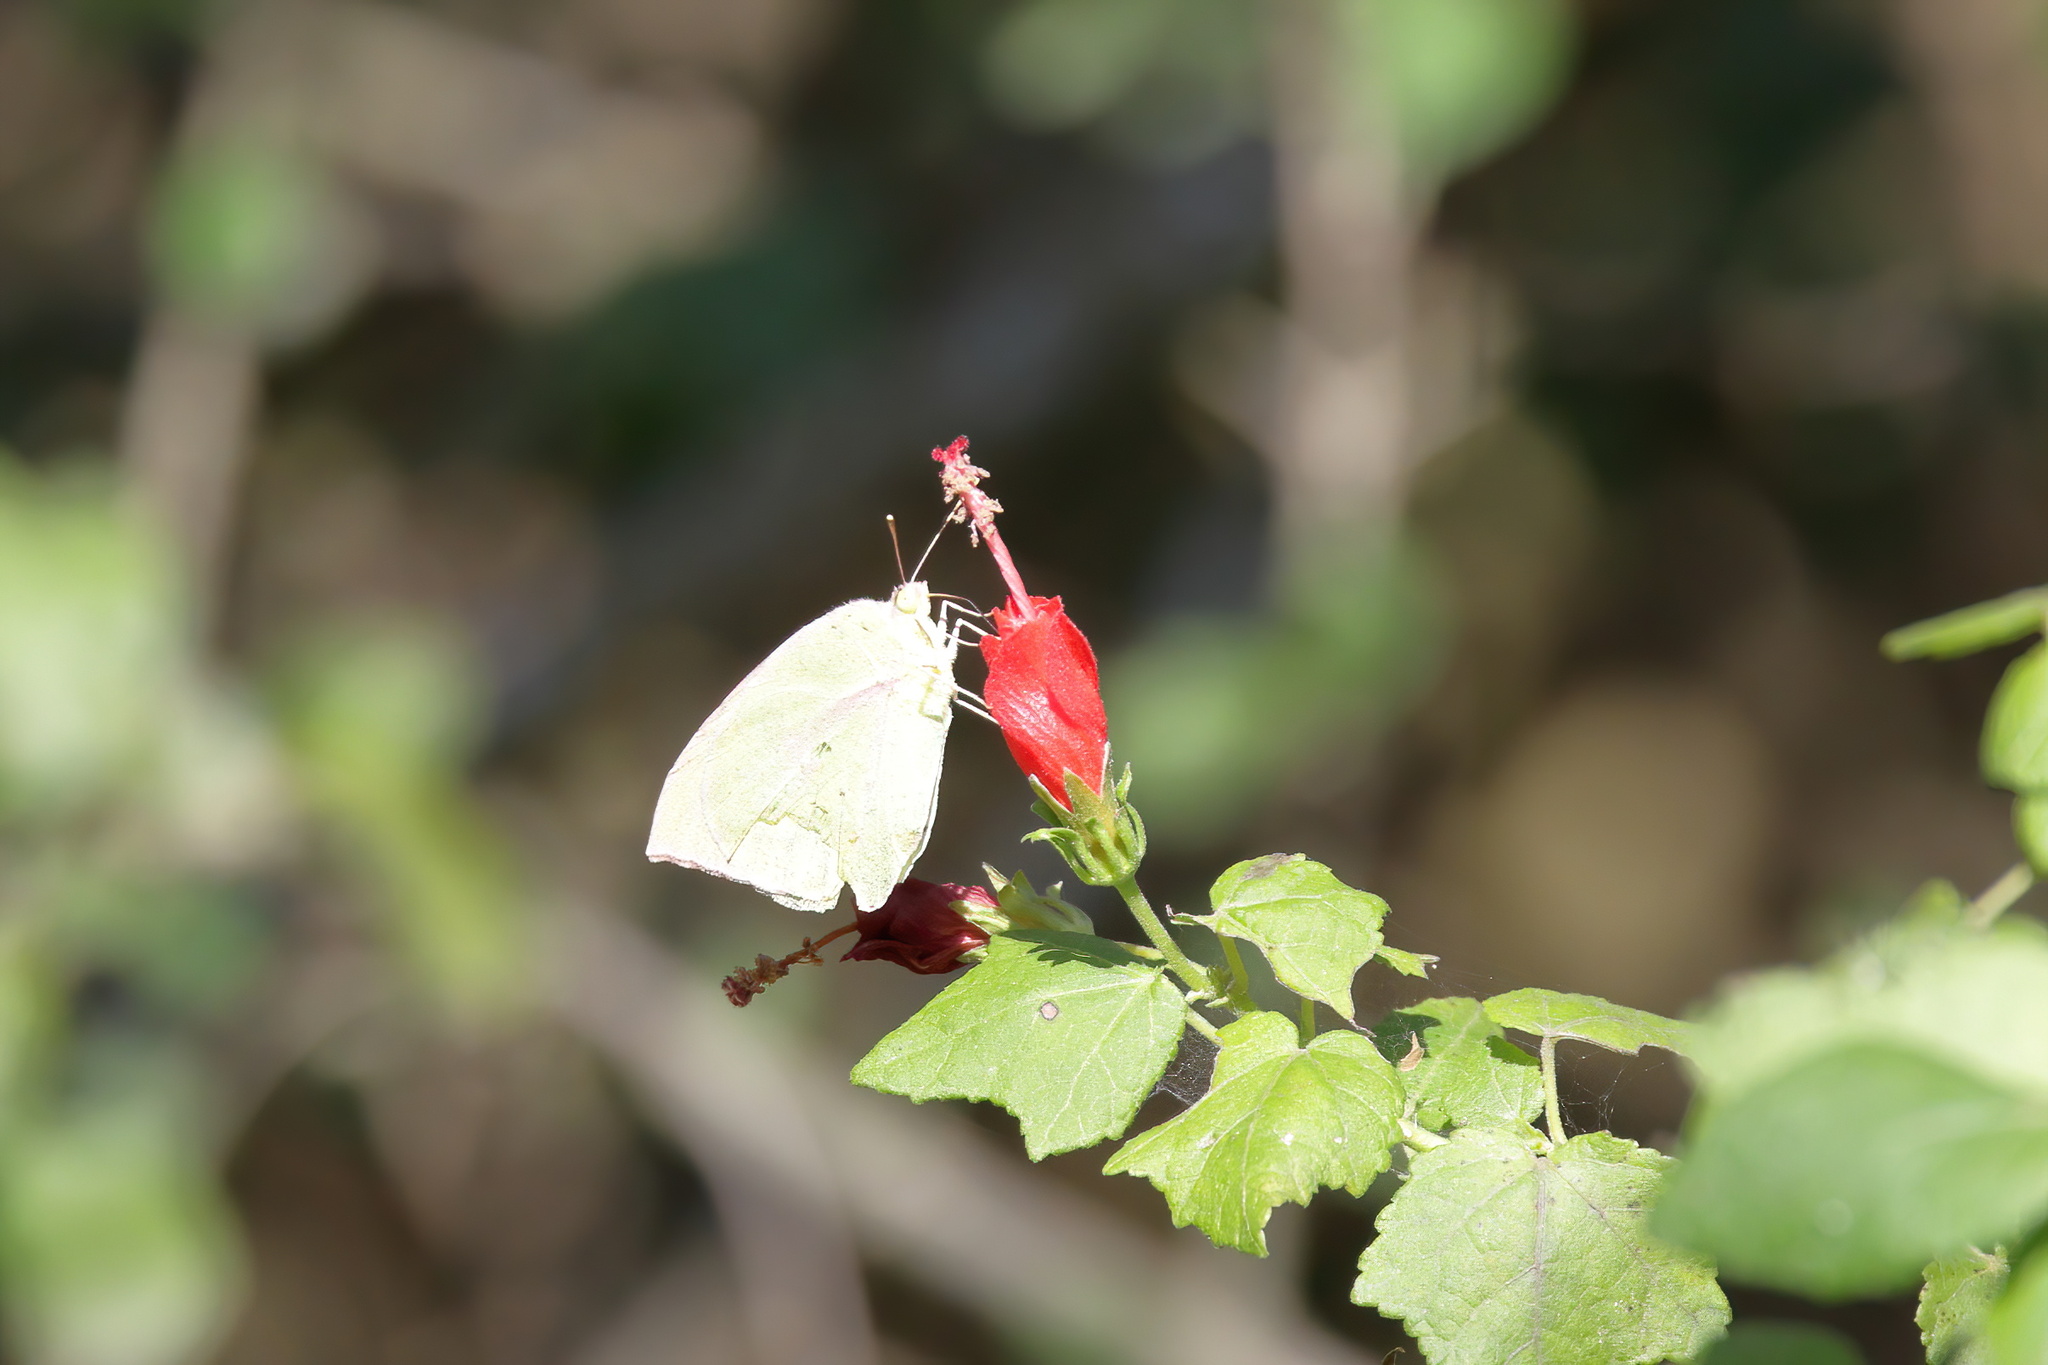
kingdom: Animalia
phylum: Arthropoda
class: Insecta
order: Lepidoptera
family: Pieridae
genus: Zerene
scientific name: Zerene cesonia
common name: Southern dogface
